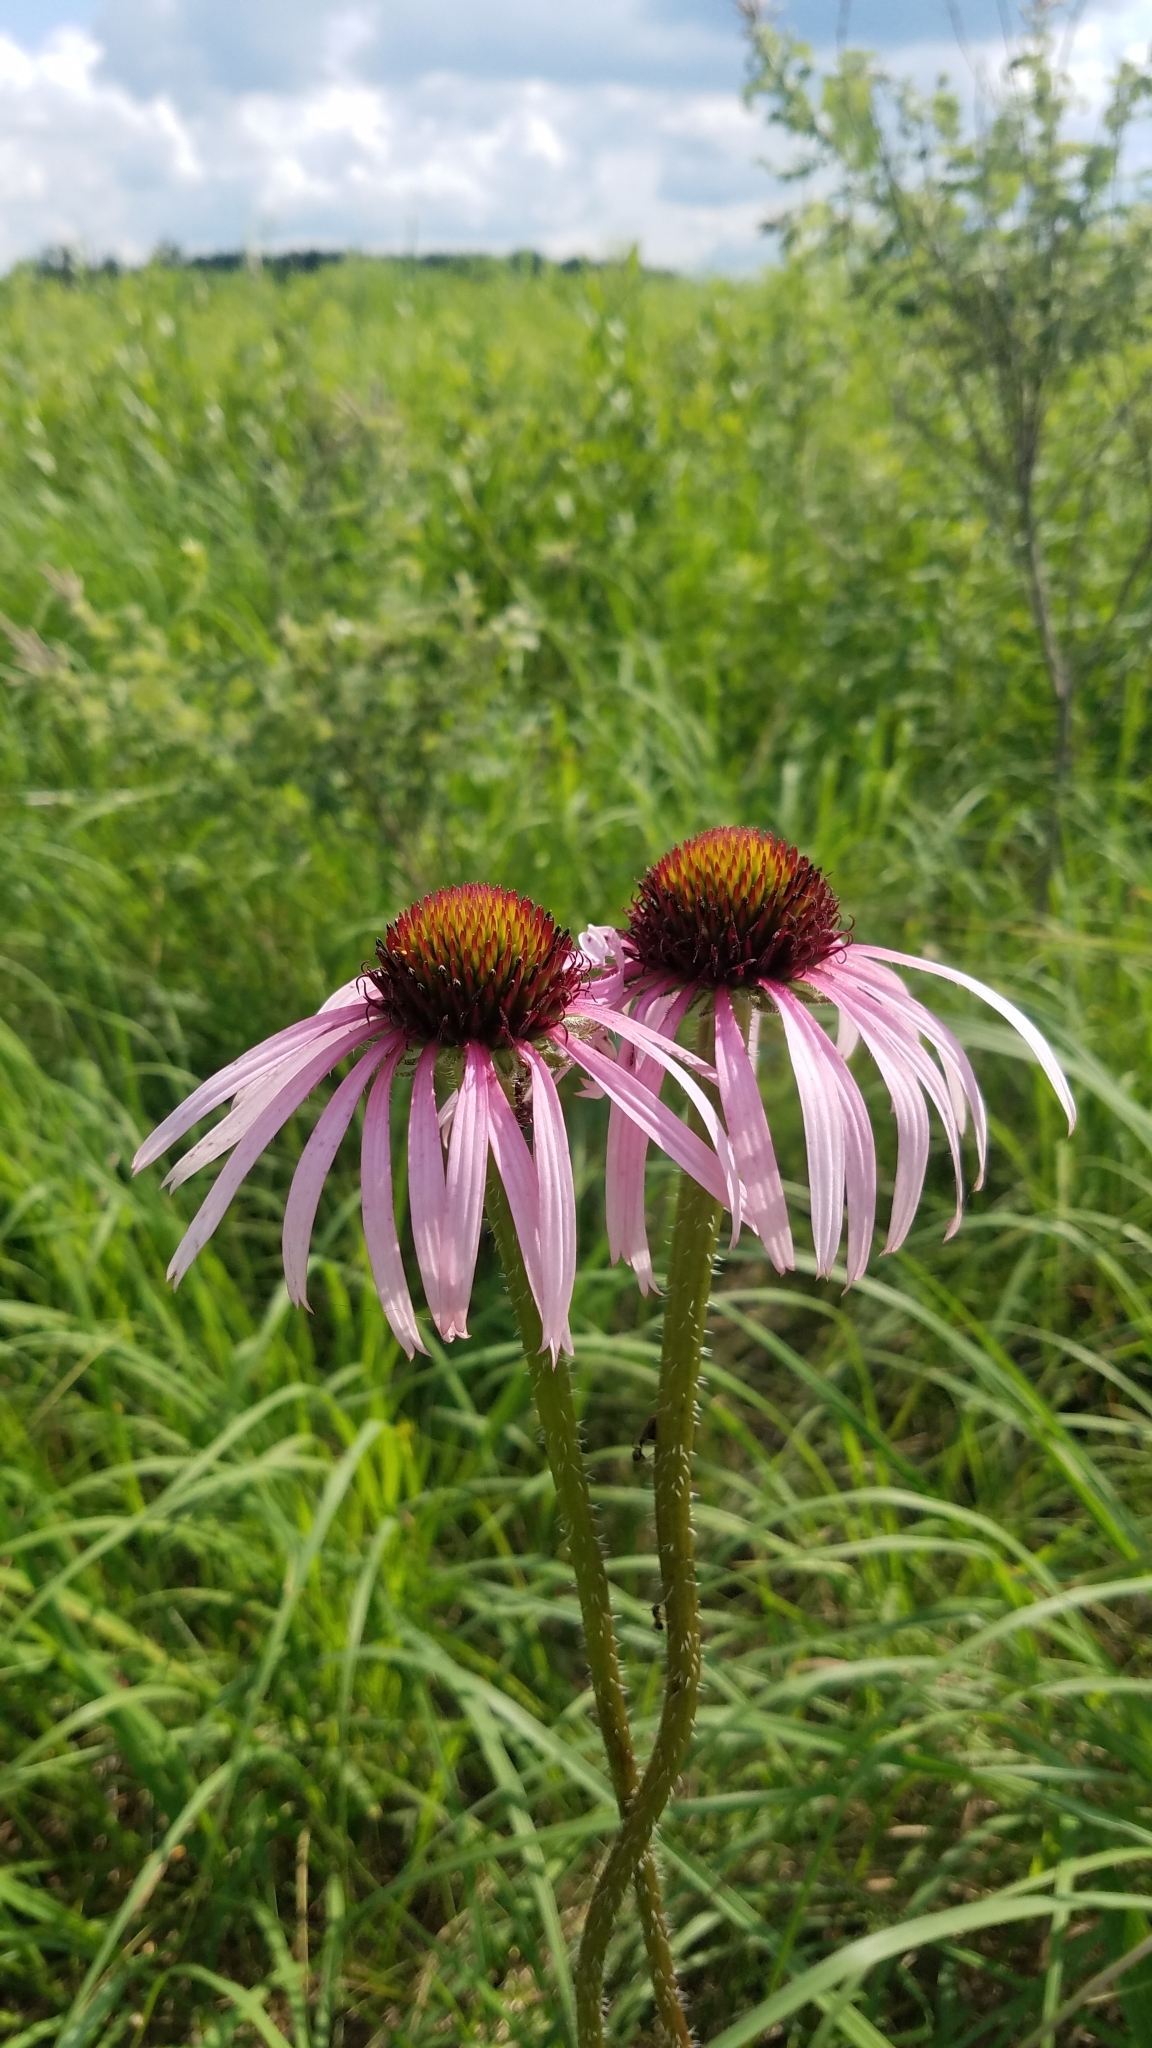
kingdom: Plantae
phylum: Tracheophyta
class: Magnoliopsida
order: Asterales
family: Asteraceae
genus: Echinacea
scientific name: Echinacea pallida
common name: Pale echinacea
